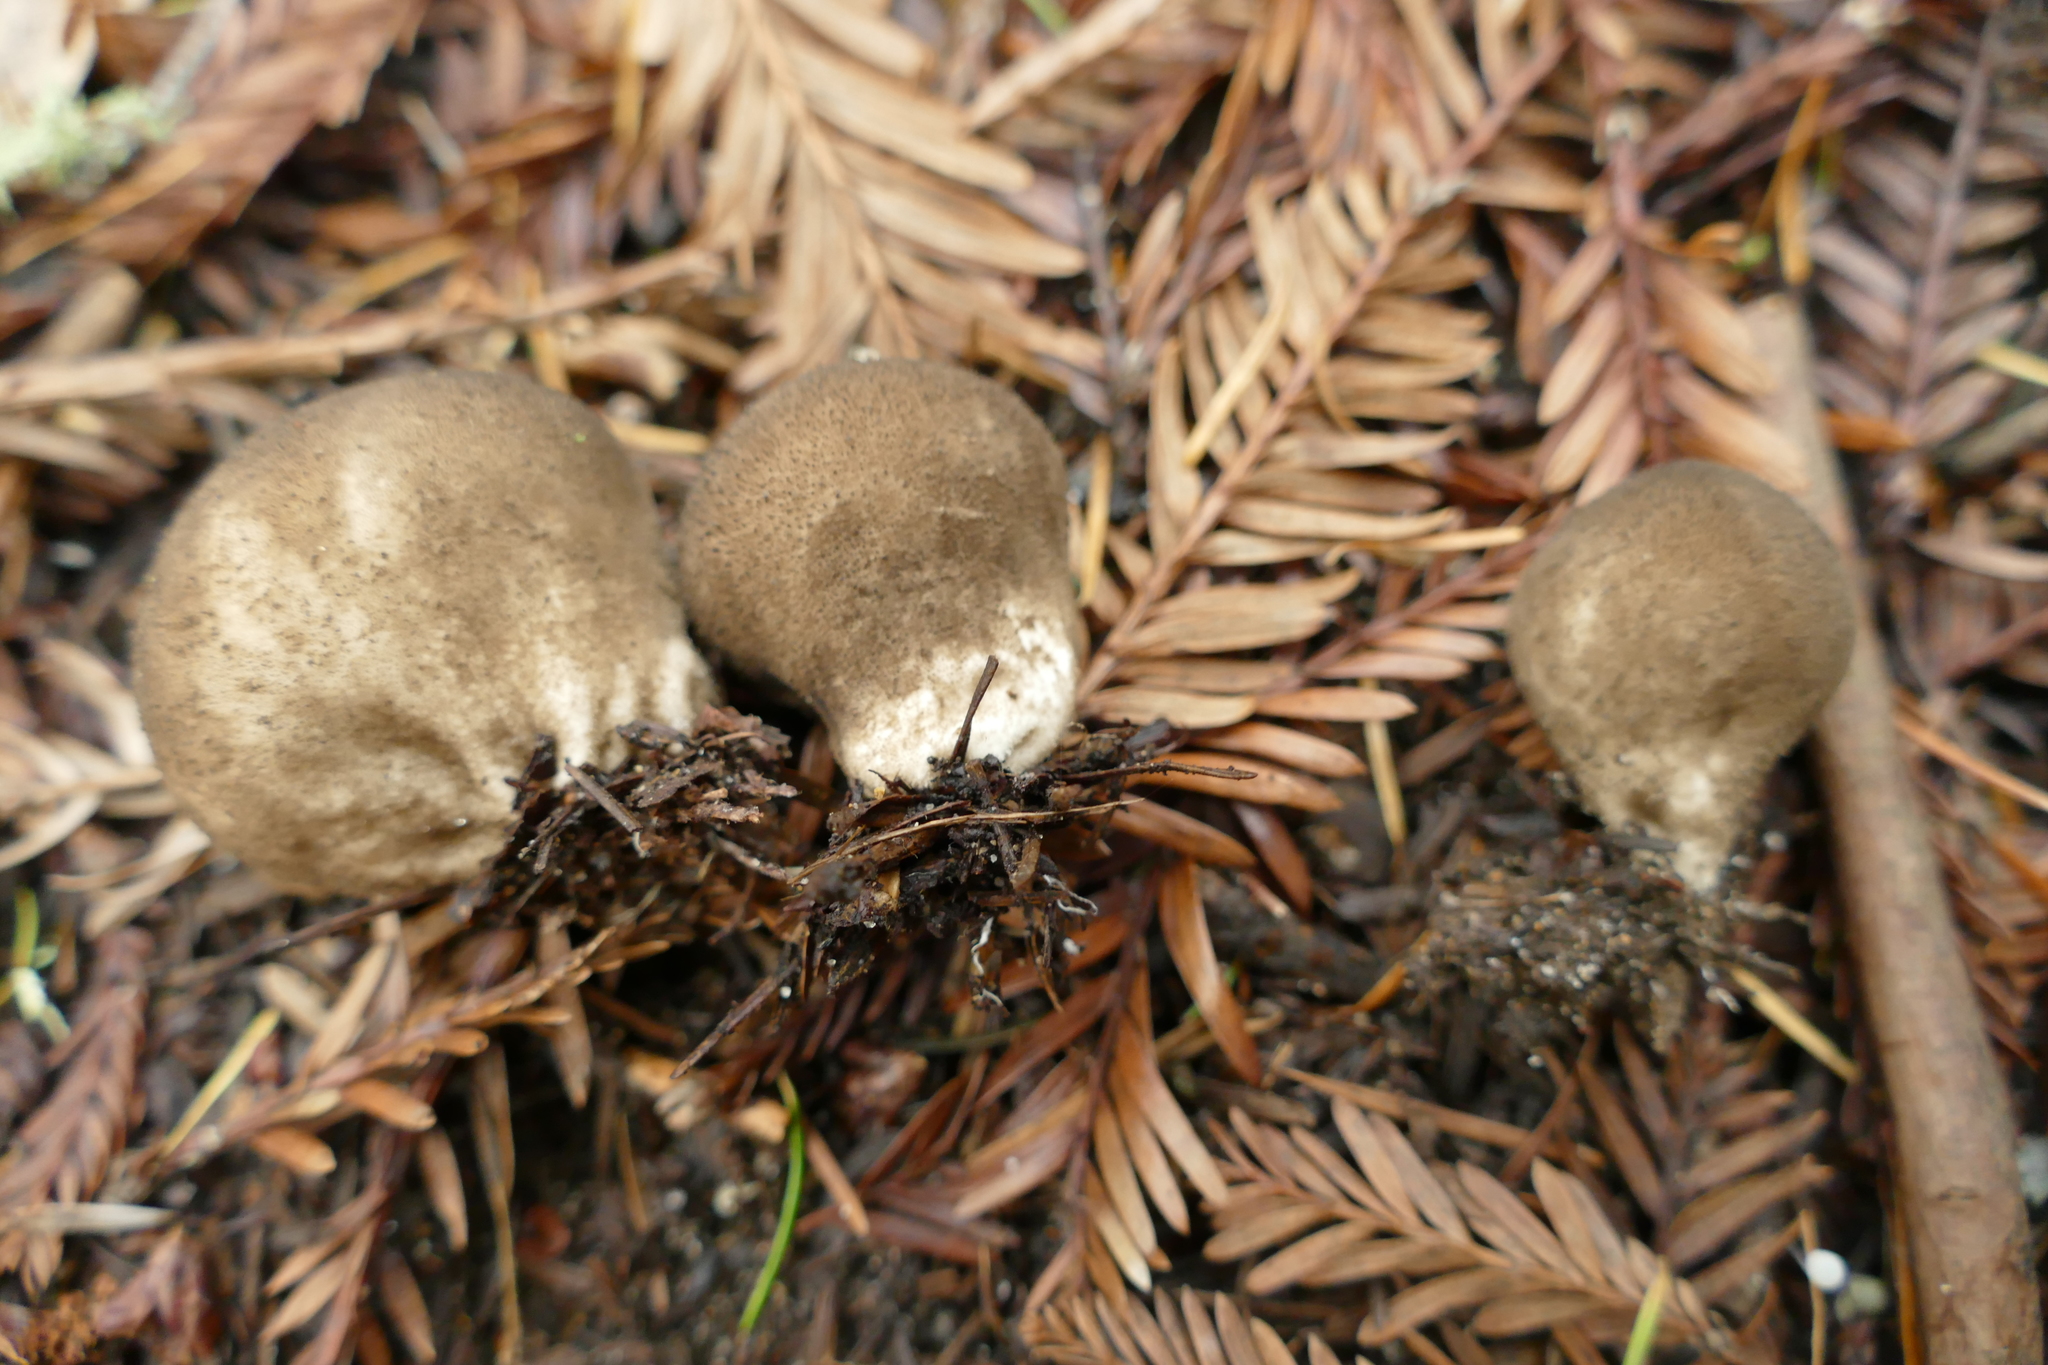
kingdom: Fungi
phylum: Basidiomycota
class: Agaricomycetes
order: Agaricales
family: Lycoperdaceae
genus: Lycoperdon
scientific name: Lycoperdon umbrinum
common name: Umber-brown puffball
